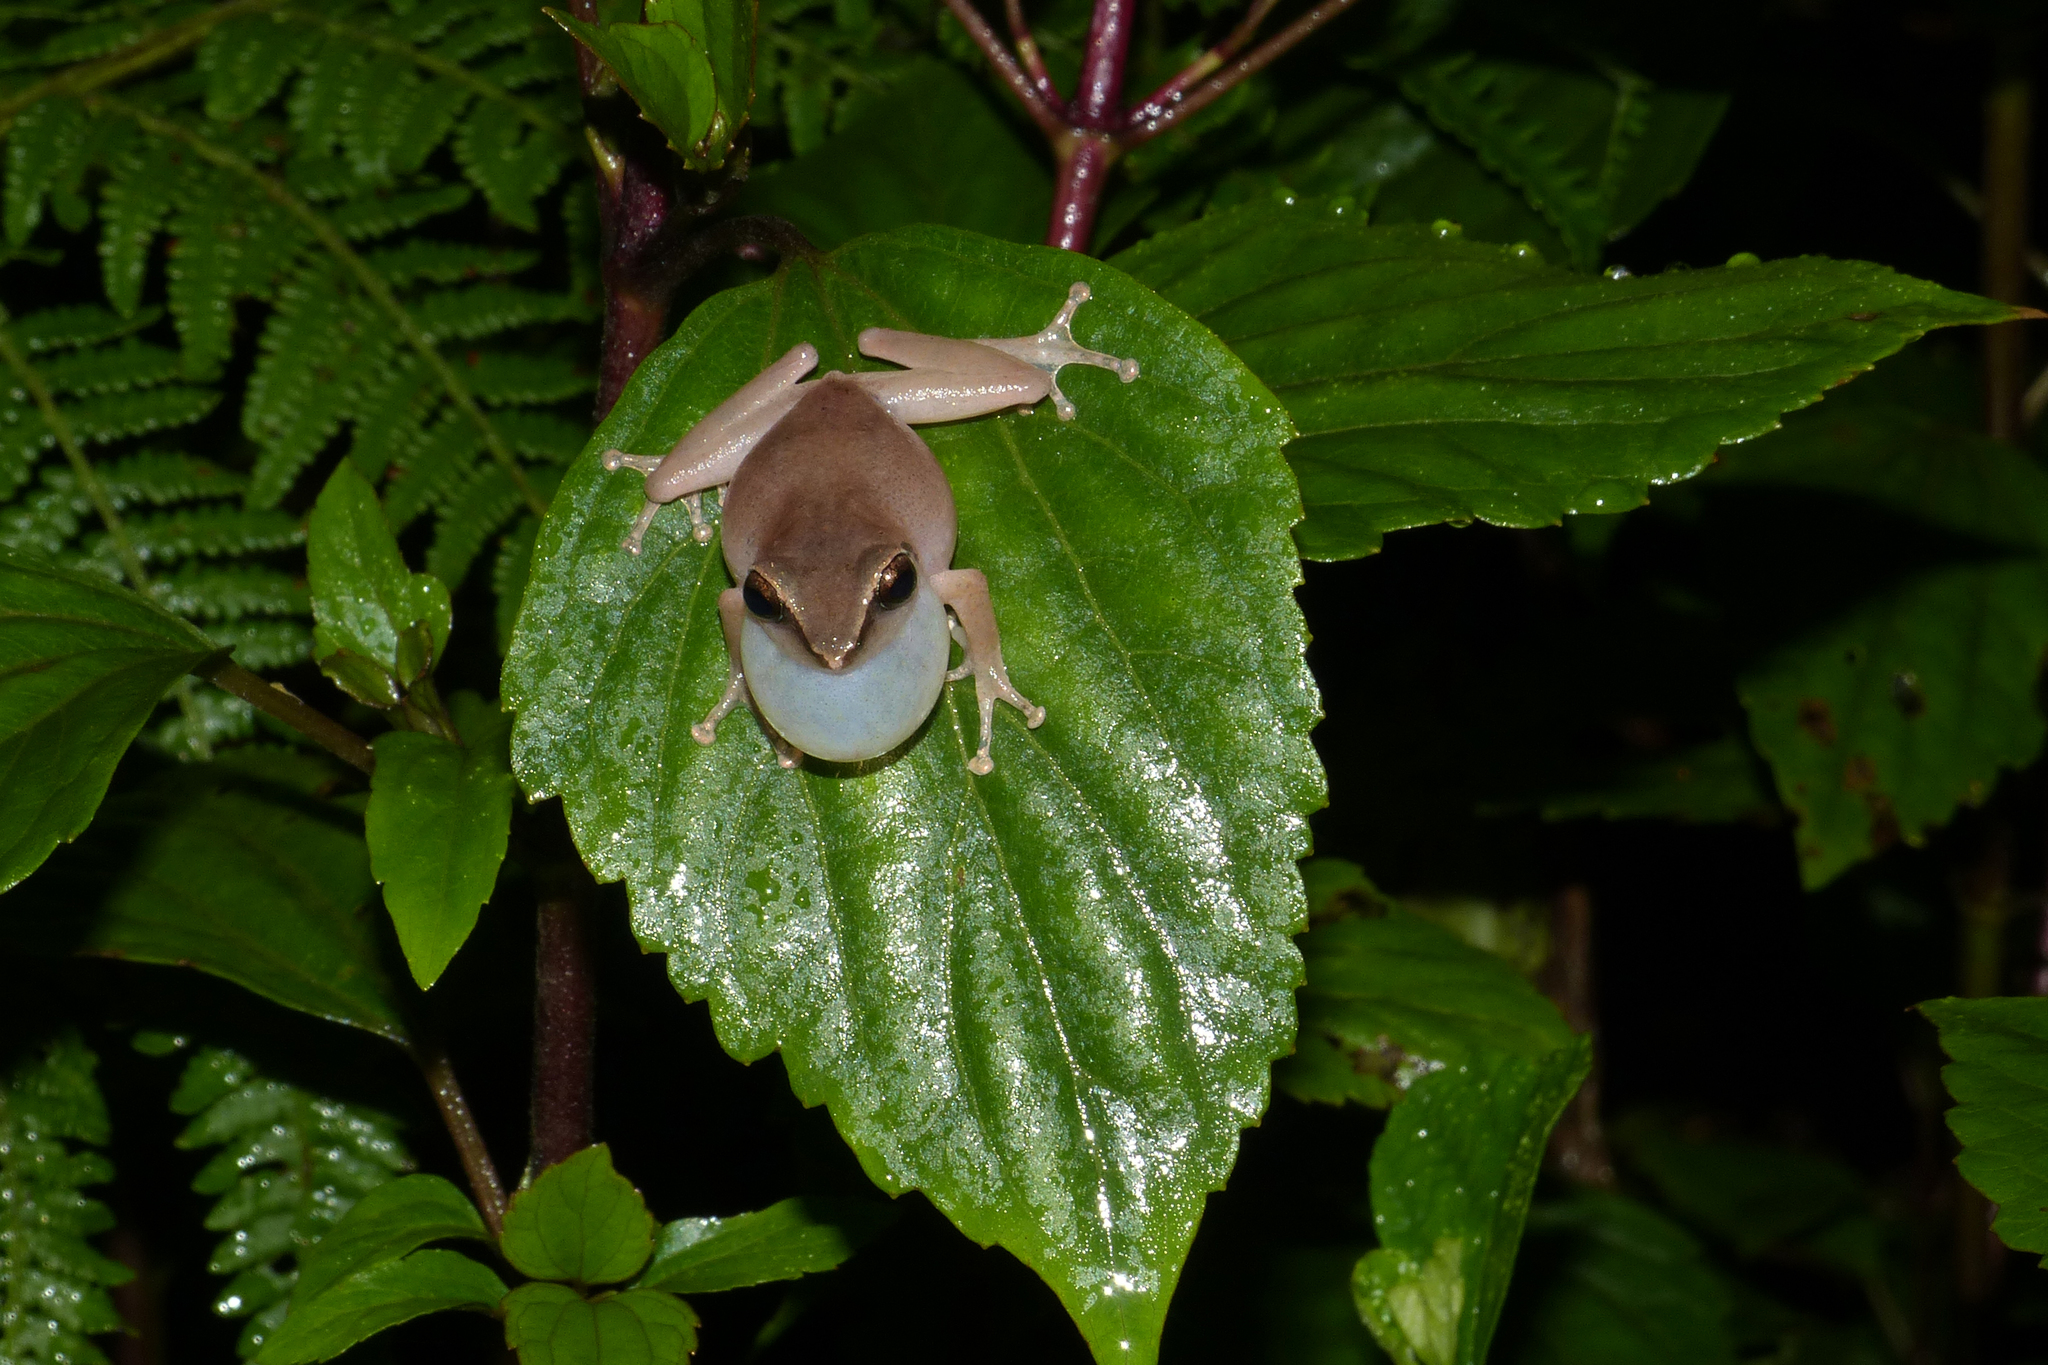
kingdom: Animalia
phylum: Chordata
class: Amphibia
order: Anura
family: Rhacophoridae
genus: Pseudophilautus
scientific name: Pseudophilautus wynaadensis
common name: Dark-eared bush frog
